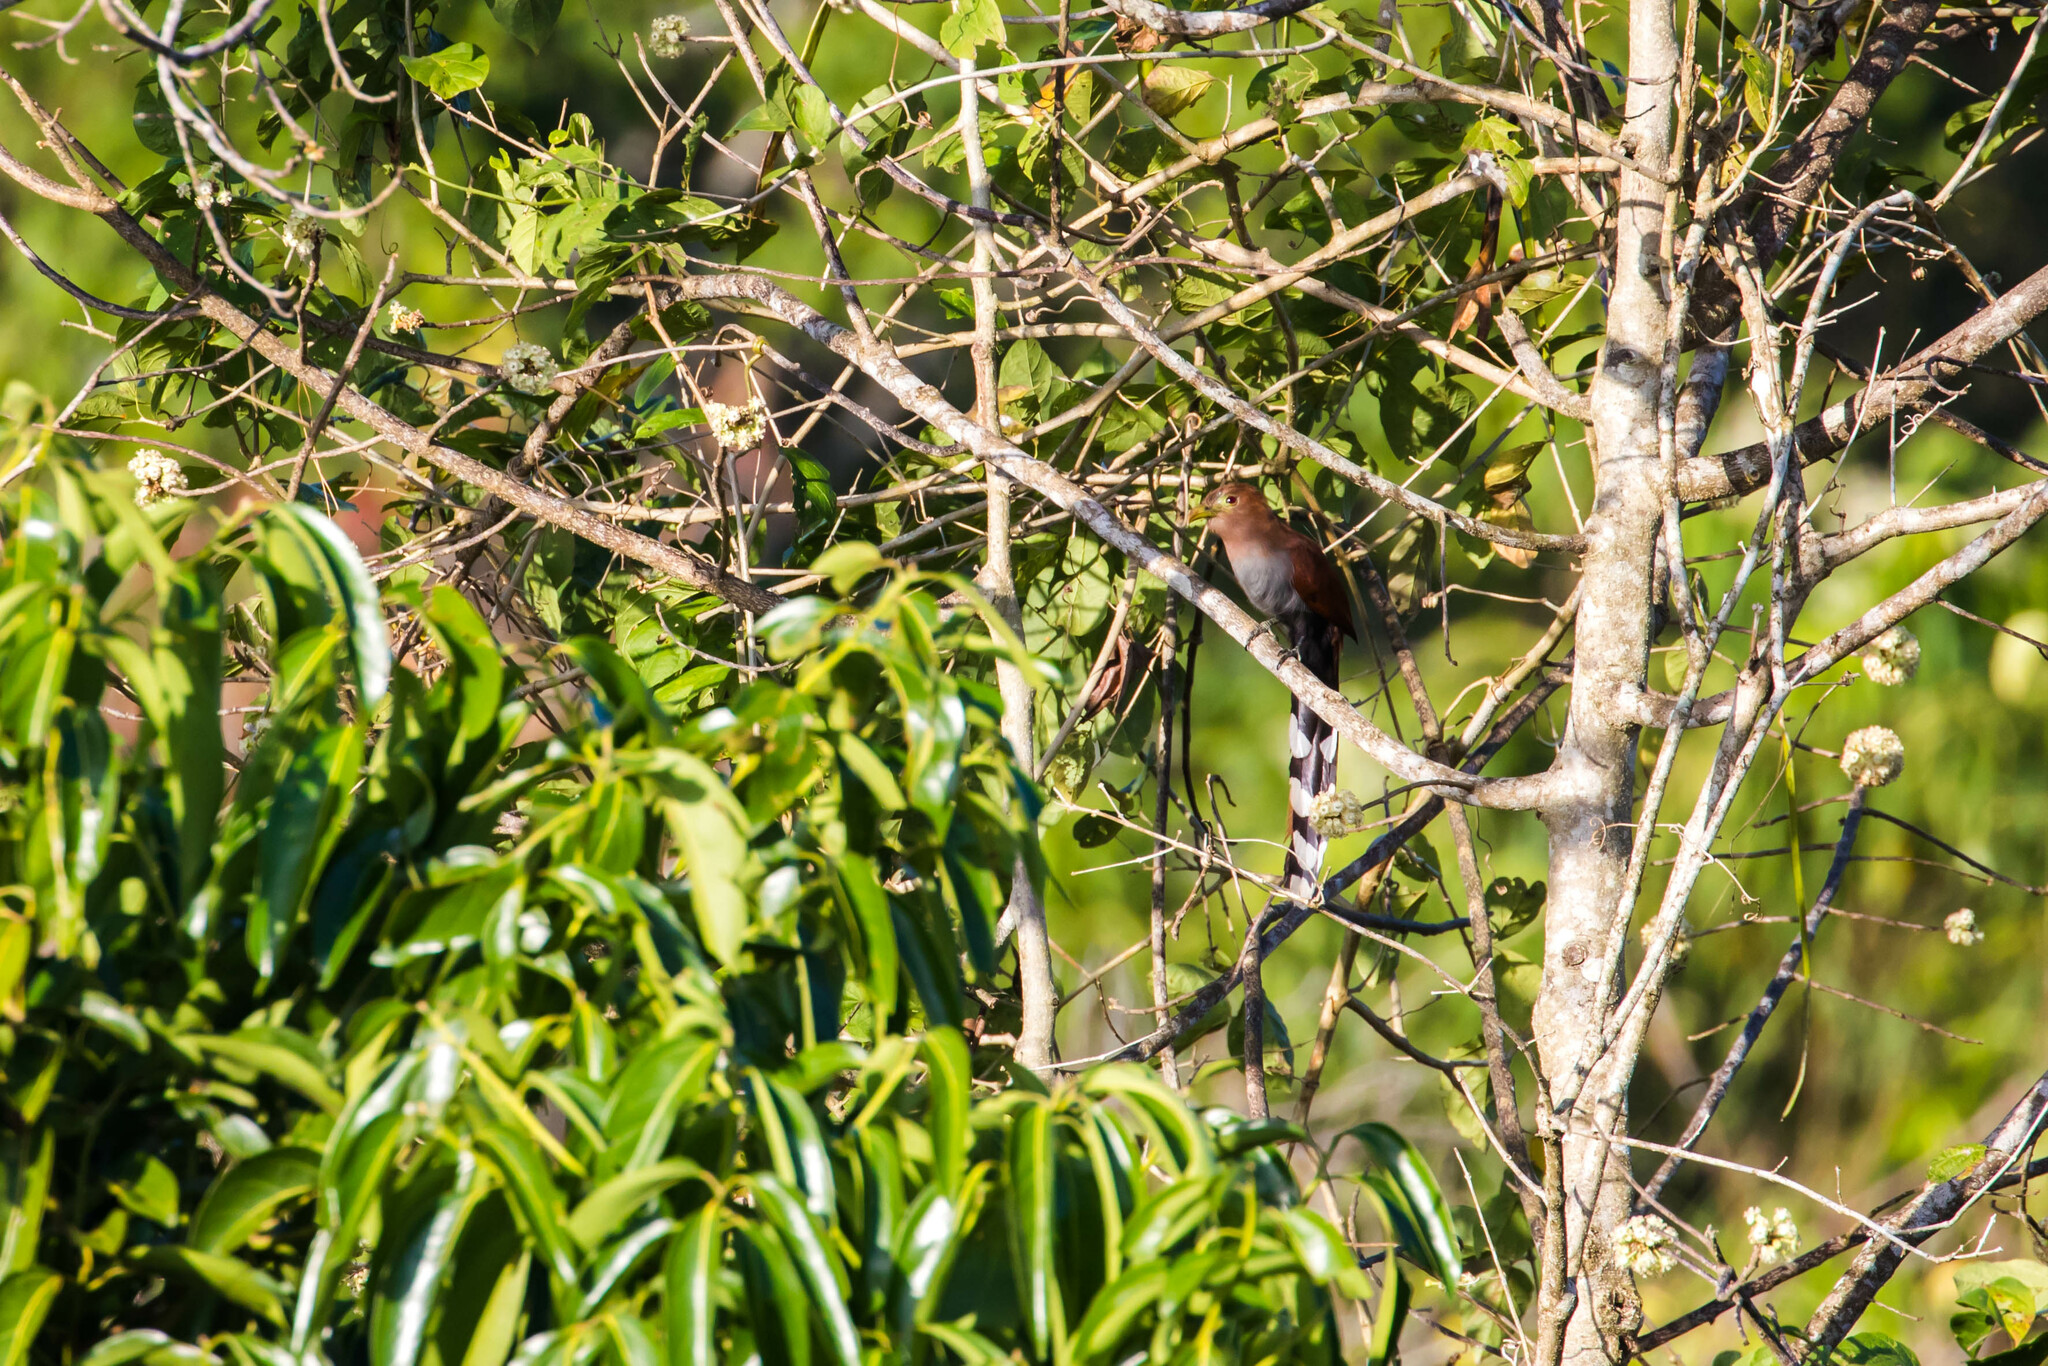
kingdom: Animalia
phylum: Chordata
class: Aves
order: Cuculiformes
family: Cuculidae
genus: Piaya
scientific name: Piaya cayana
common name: Squirrel cuckoo
